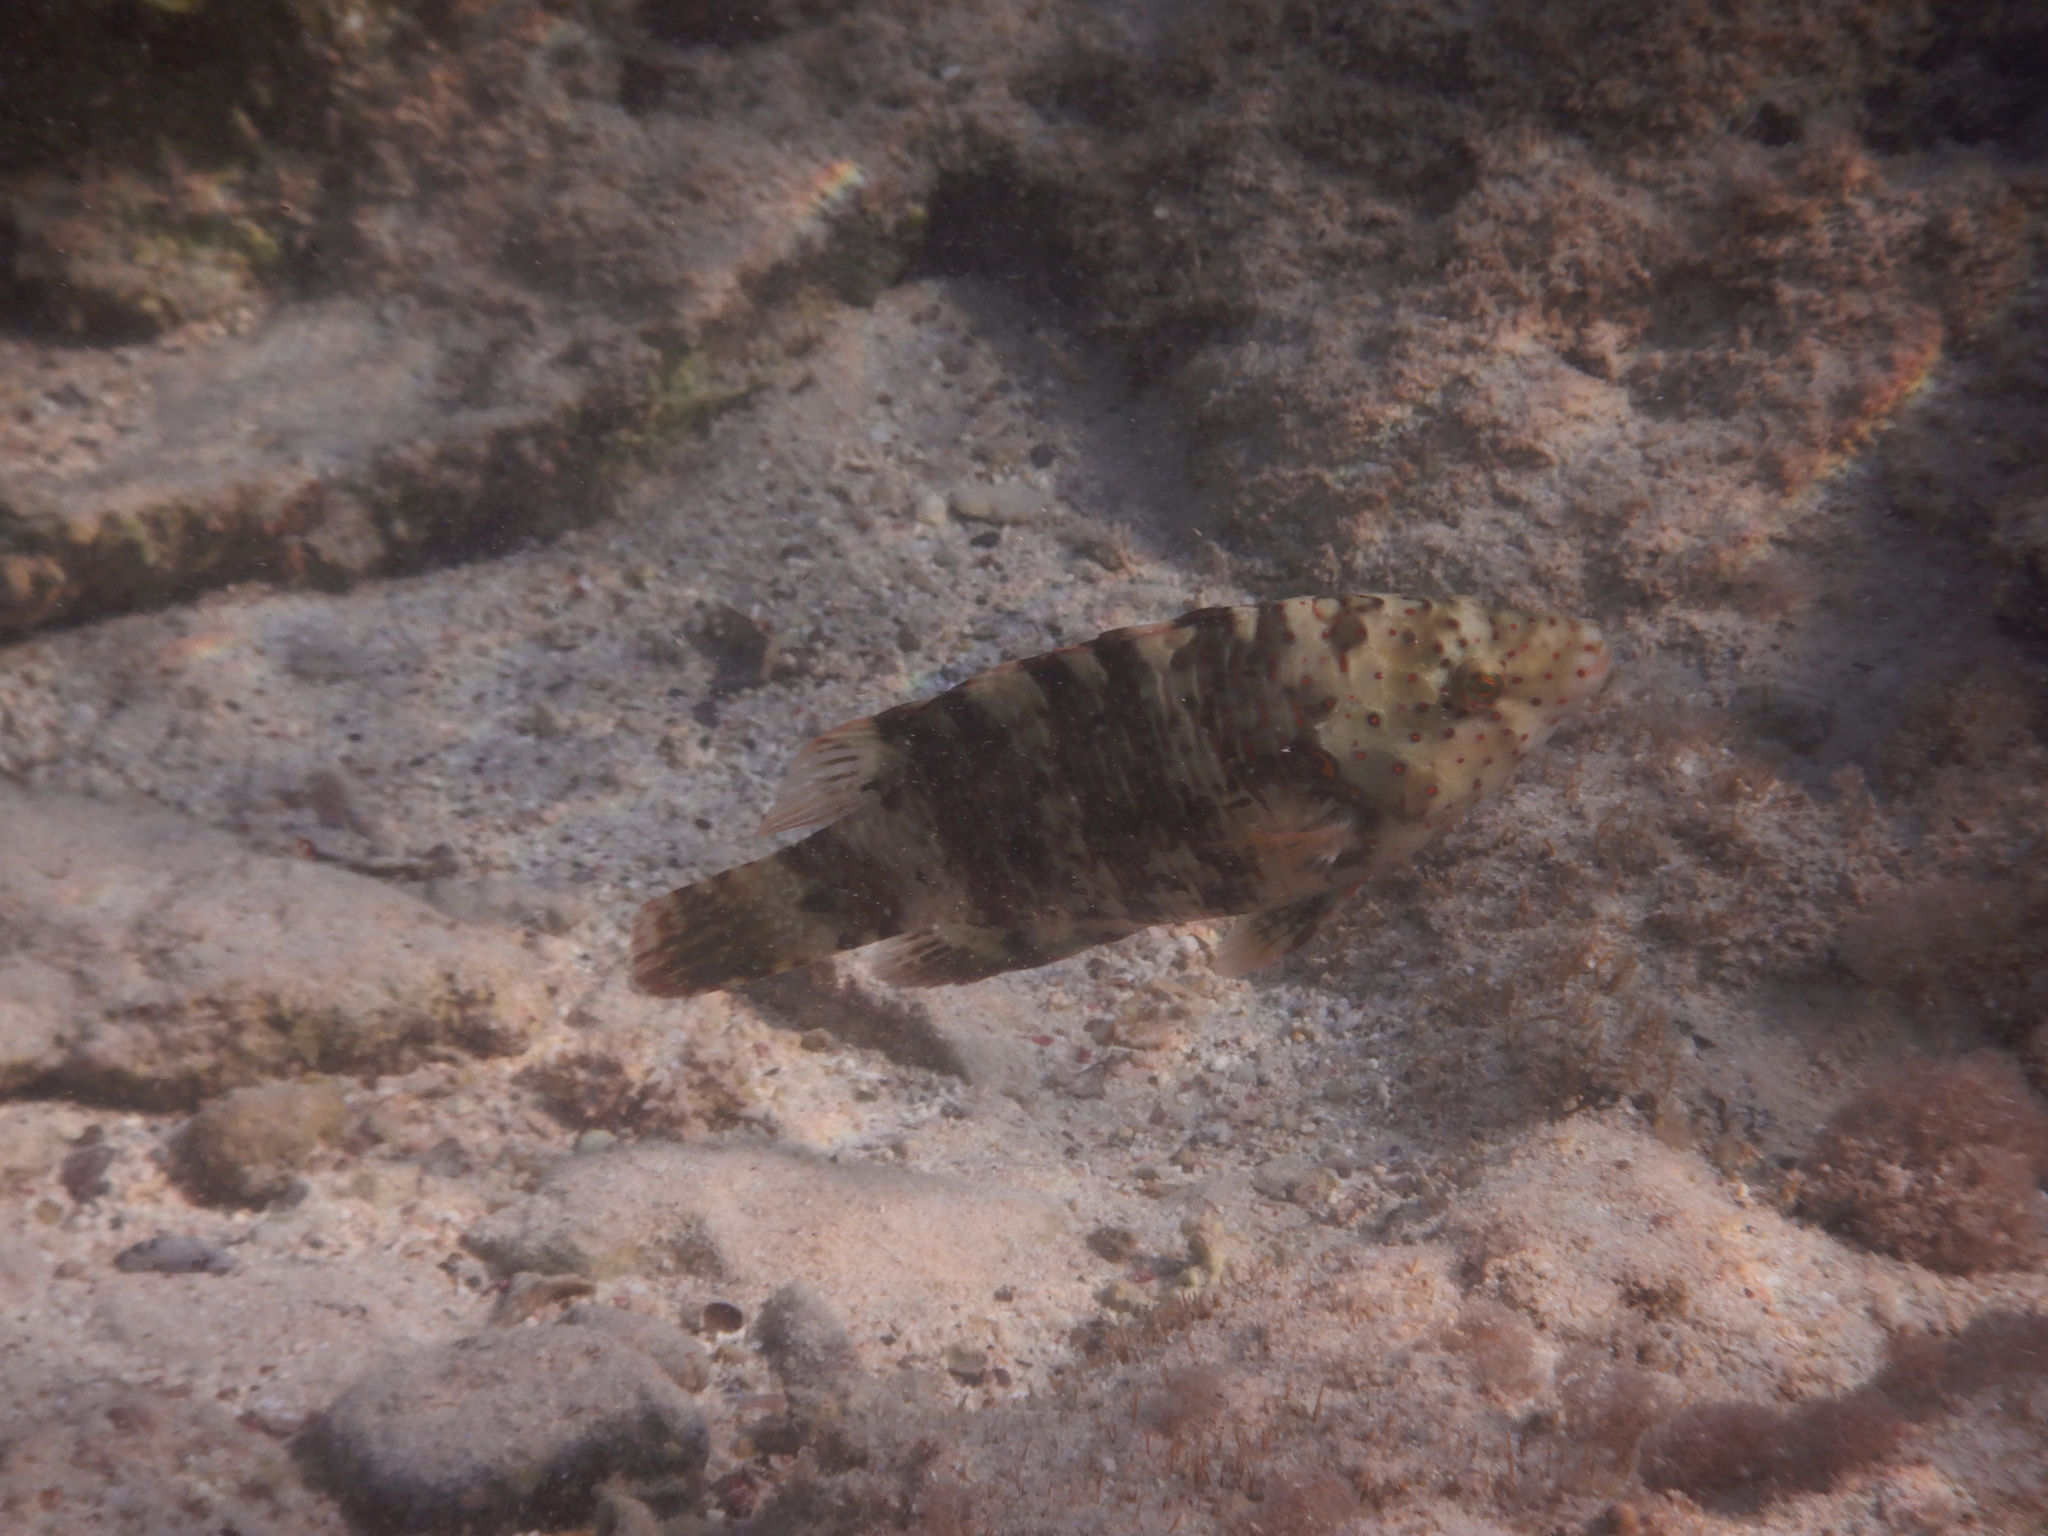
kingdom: Animalia
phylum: Chordata
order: Perciformes
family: Labridae
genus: Cheilinus
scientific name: Cheilinus lunulatus
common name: Broomtail wrasse
